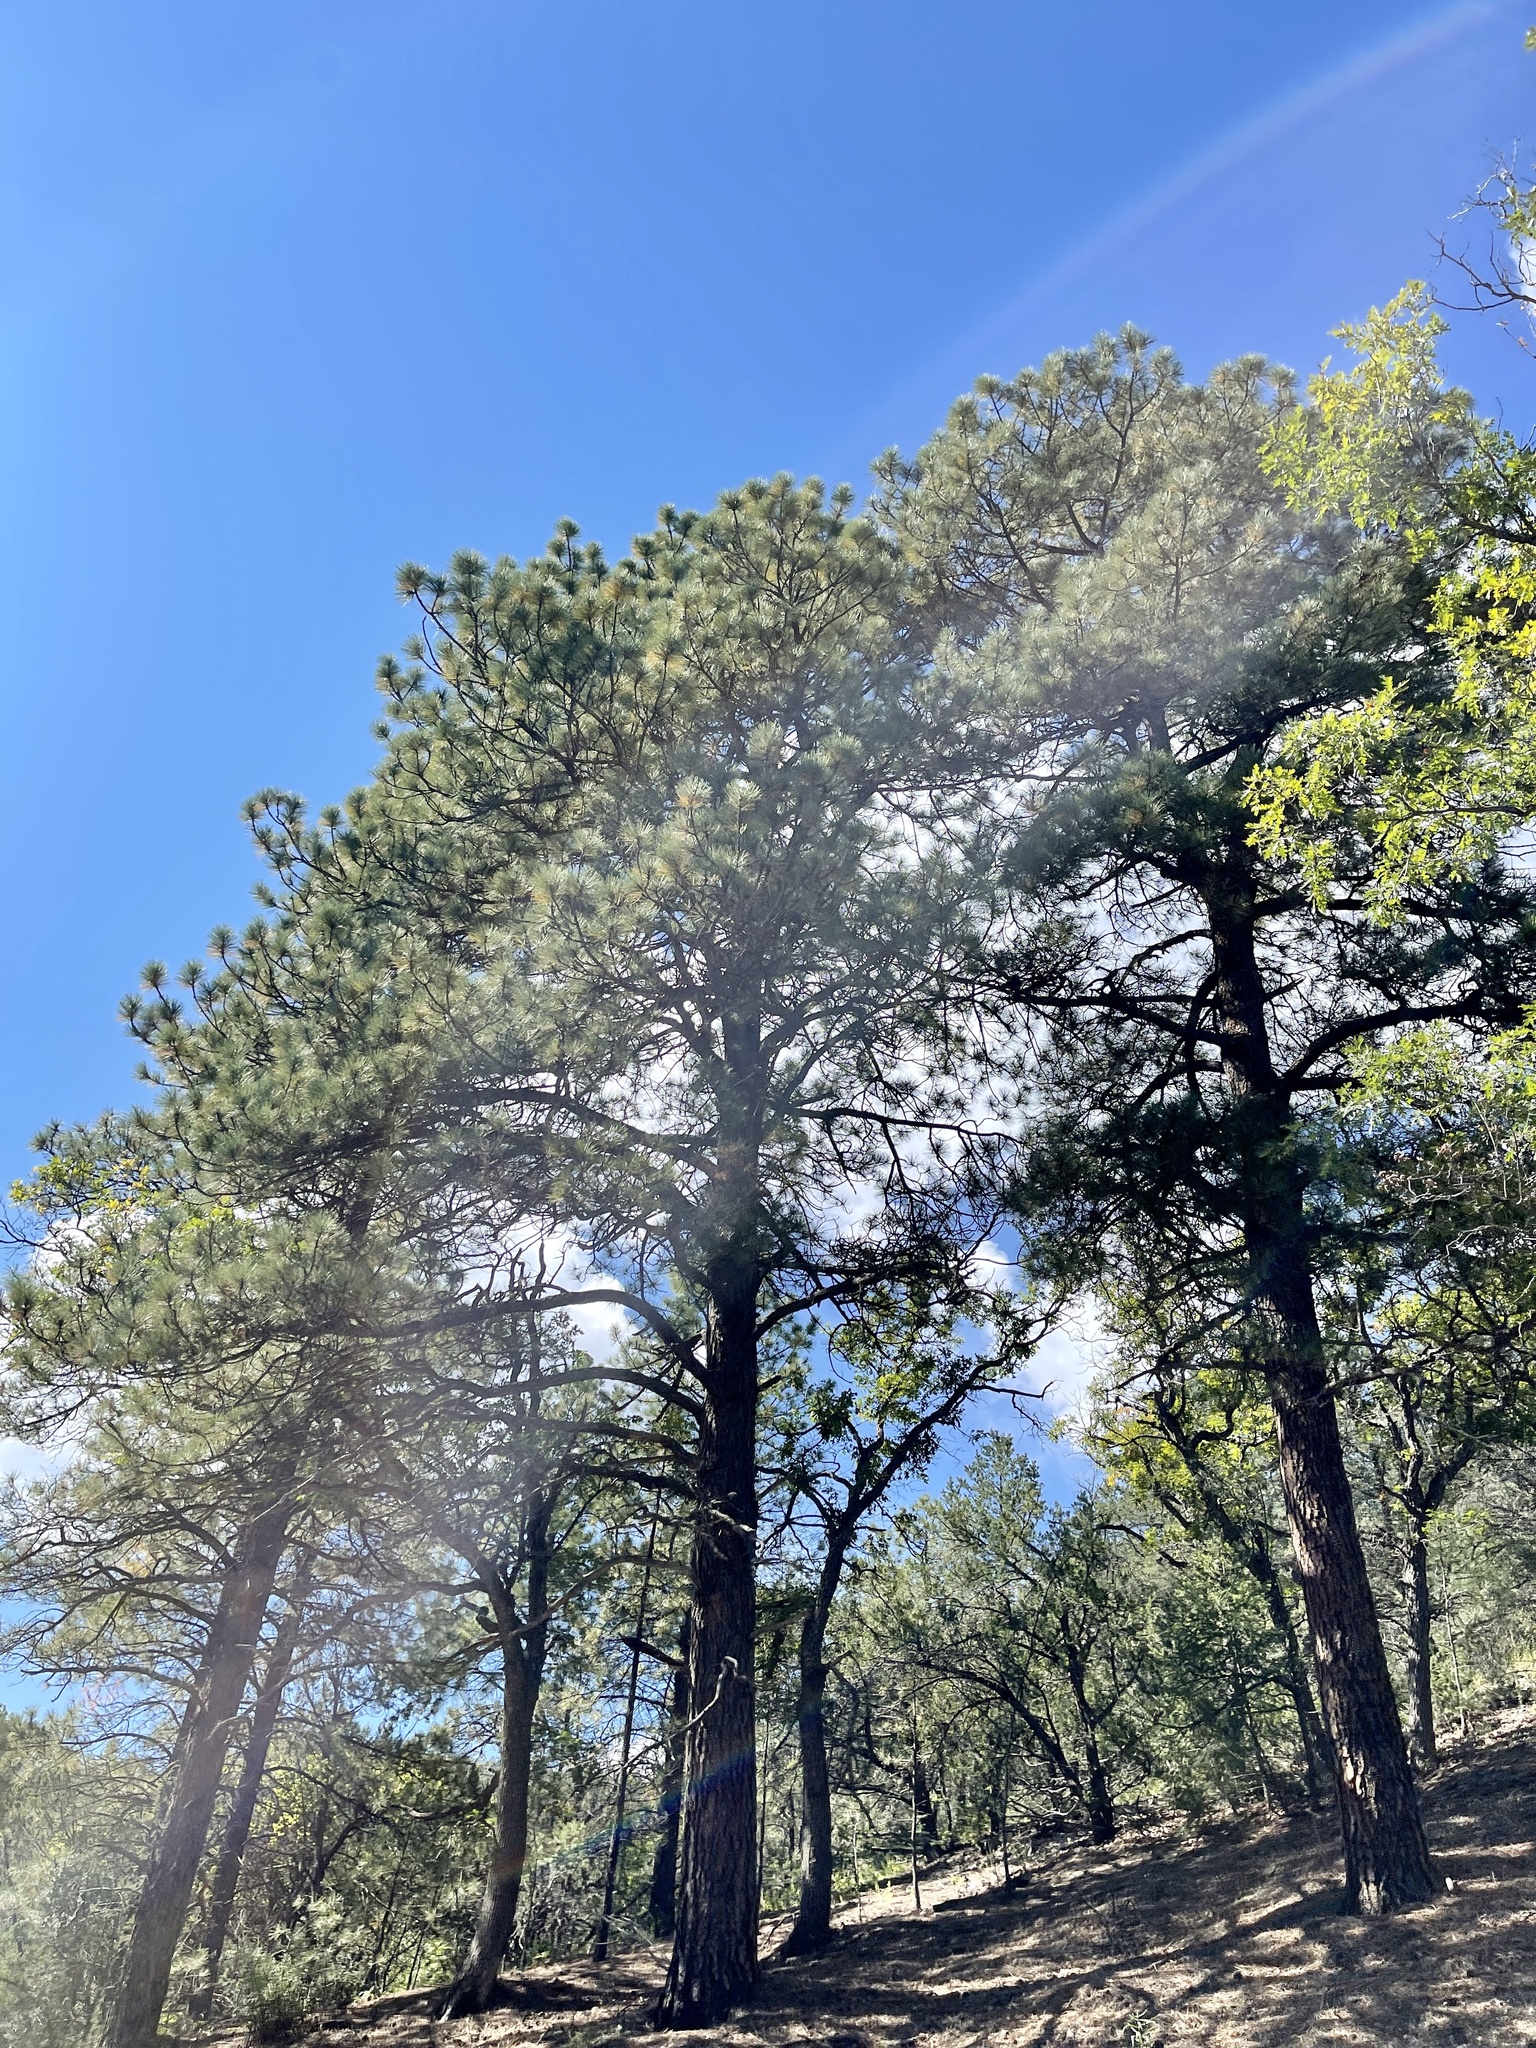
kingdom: Plantae
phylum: Tracheophyta
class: Pinopsida
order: Pinales
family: Pinaceae
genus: Pinus
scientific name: Pinus ponderosa
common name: Western yellow-pine
